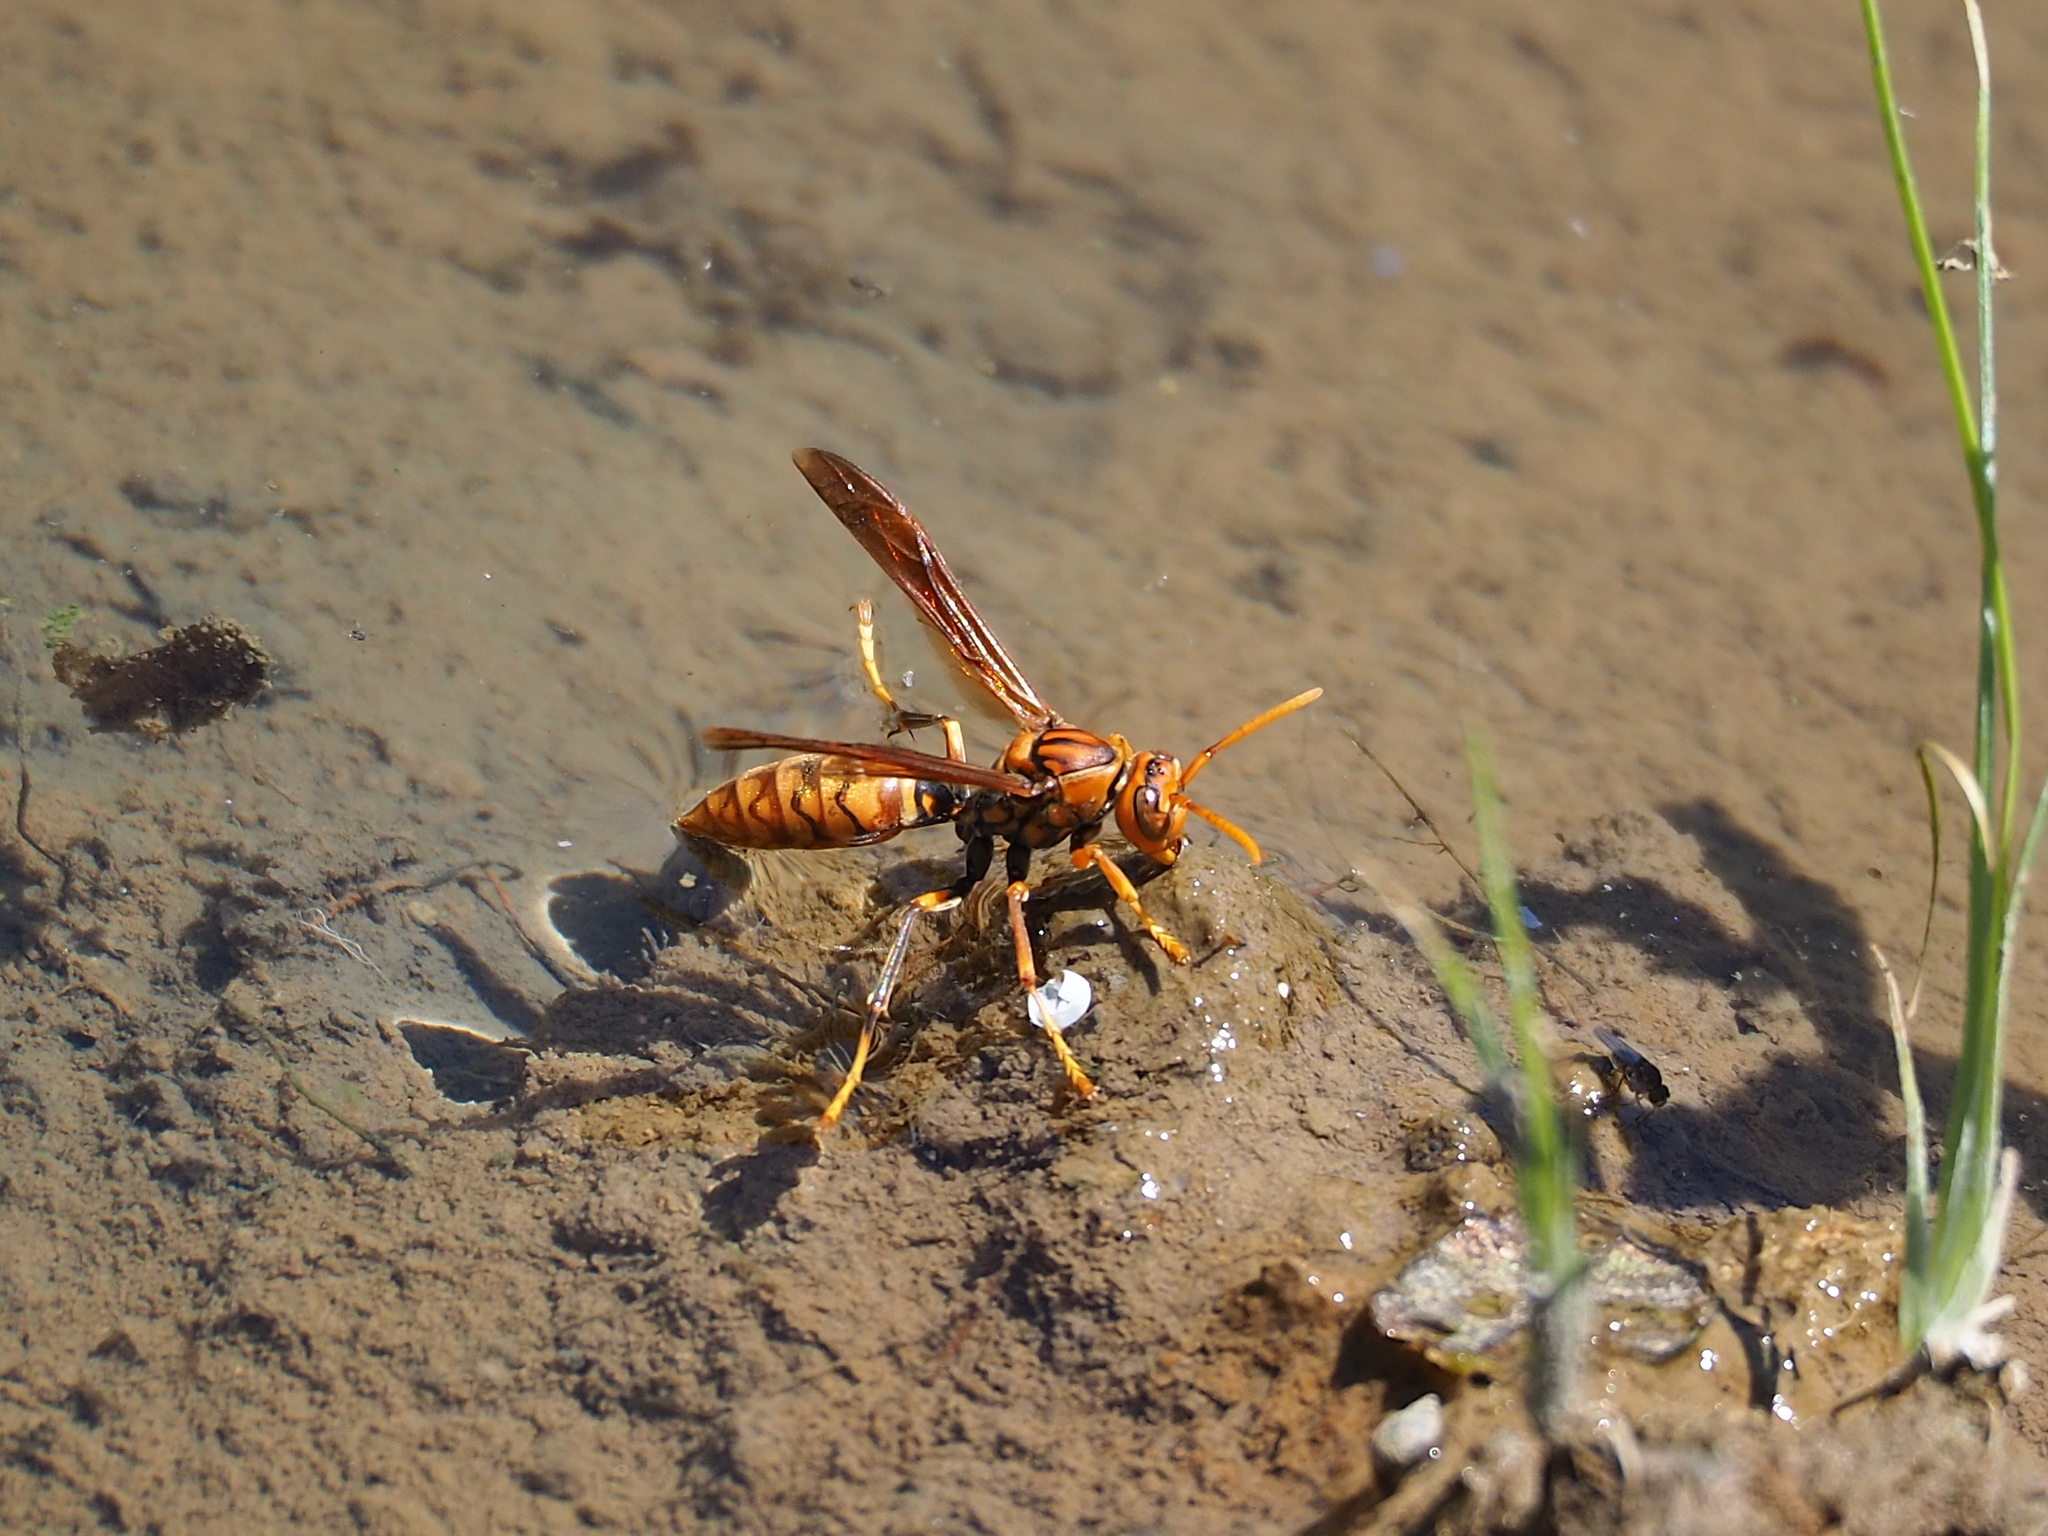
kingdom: Animalia
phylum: Arthropoda
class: Insecta
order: Hymenoptera
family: Eumenidae
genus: Polistes
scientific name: Polistes jokahamae
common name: Paper wasp
